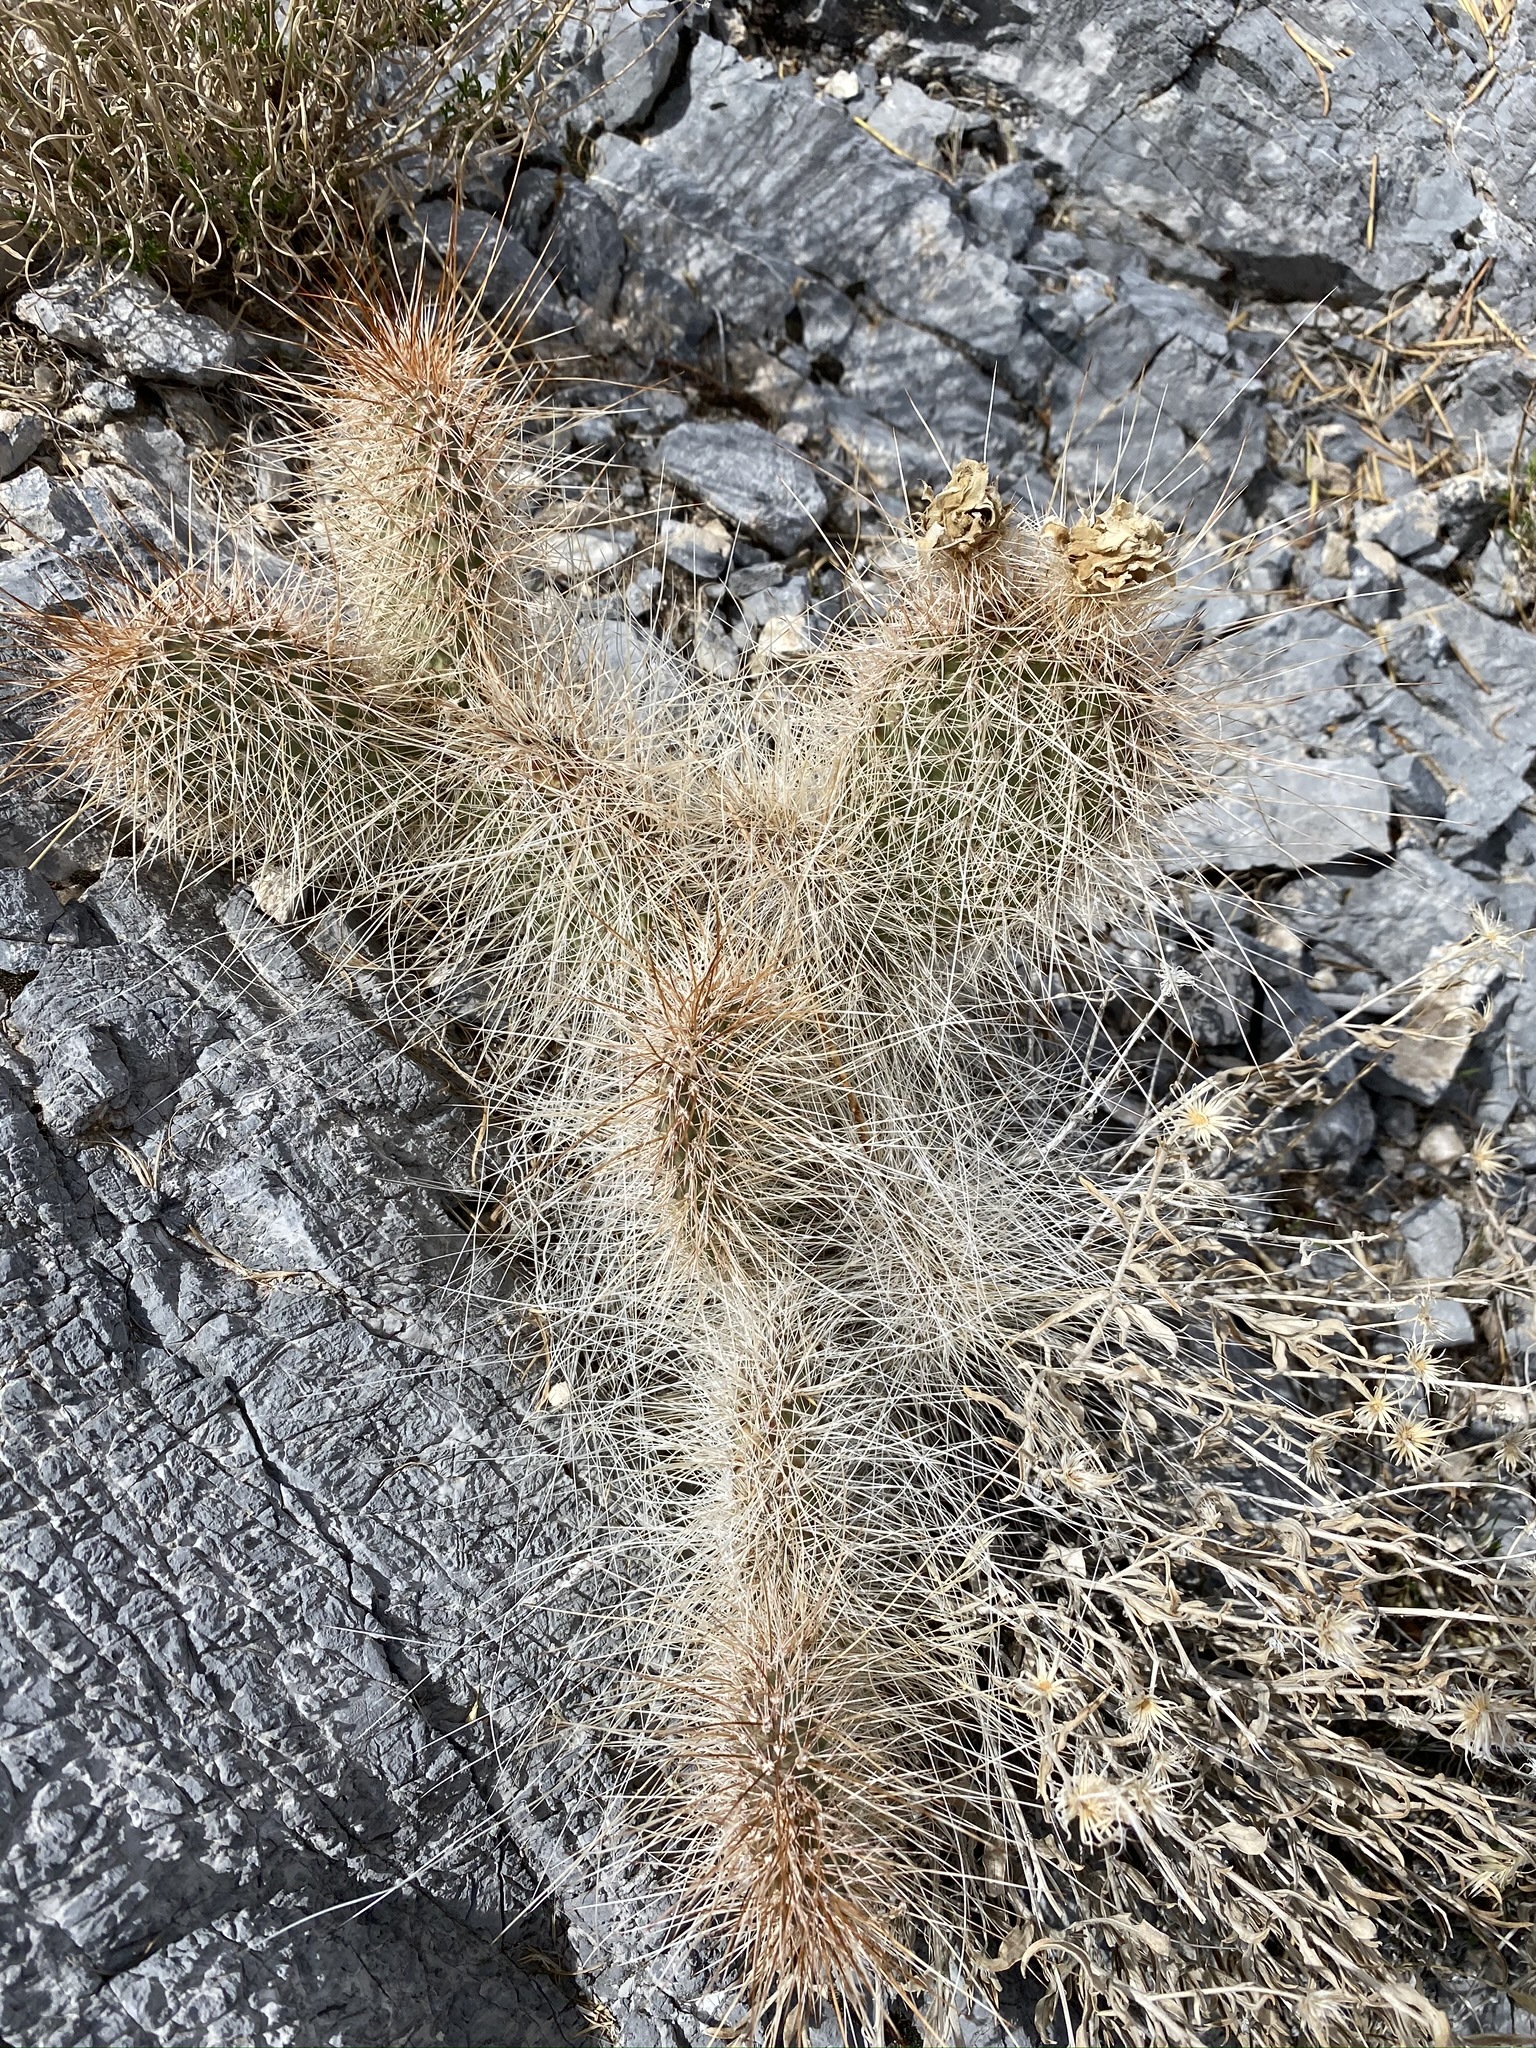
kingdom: Plantae
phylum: Tracheophyta
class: Magnoliopsida
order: Caryophyllales
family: Cactaceae
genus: Opuntia
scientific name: Opuntia polyacantha
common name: Plains prickly-pear
